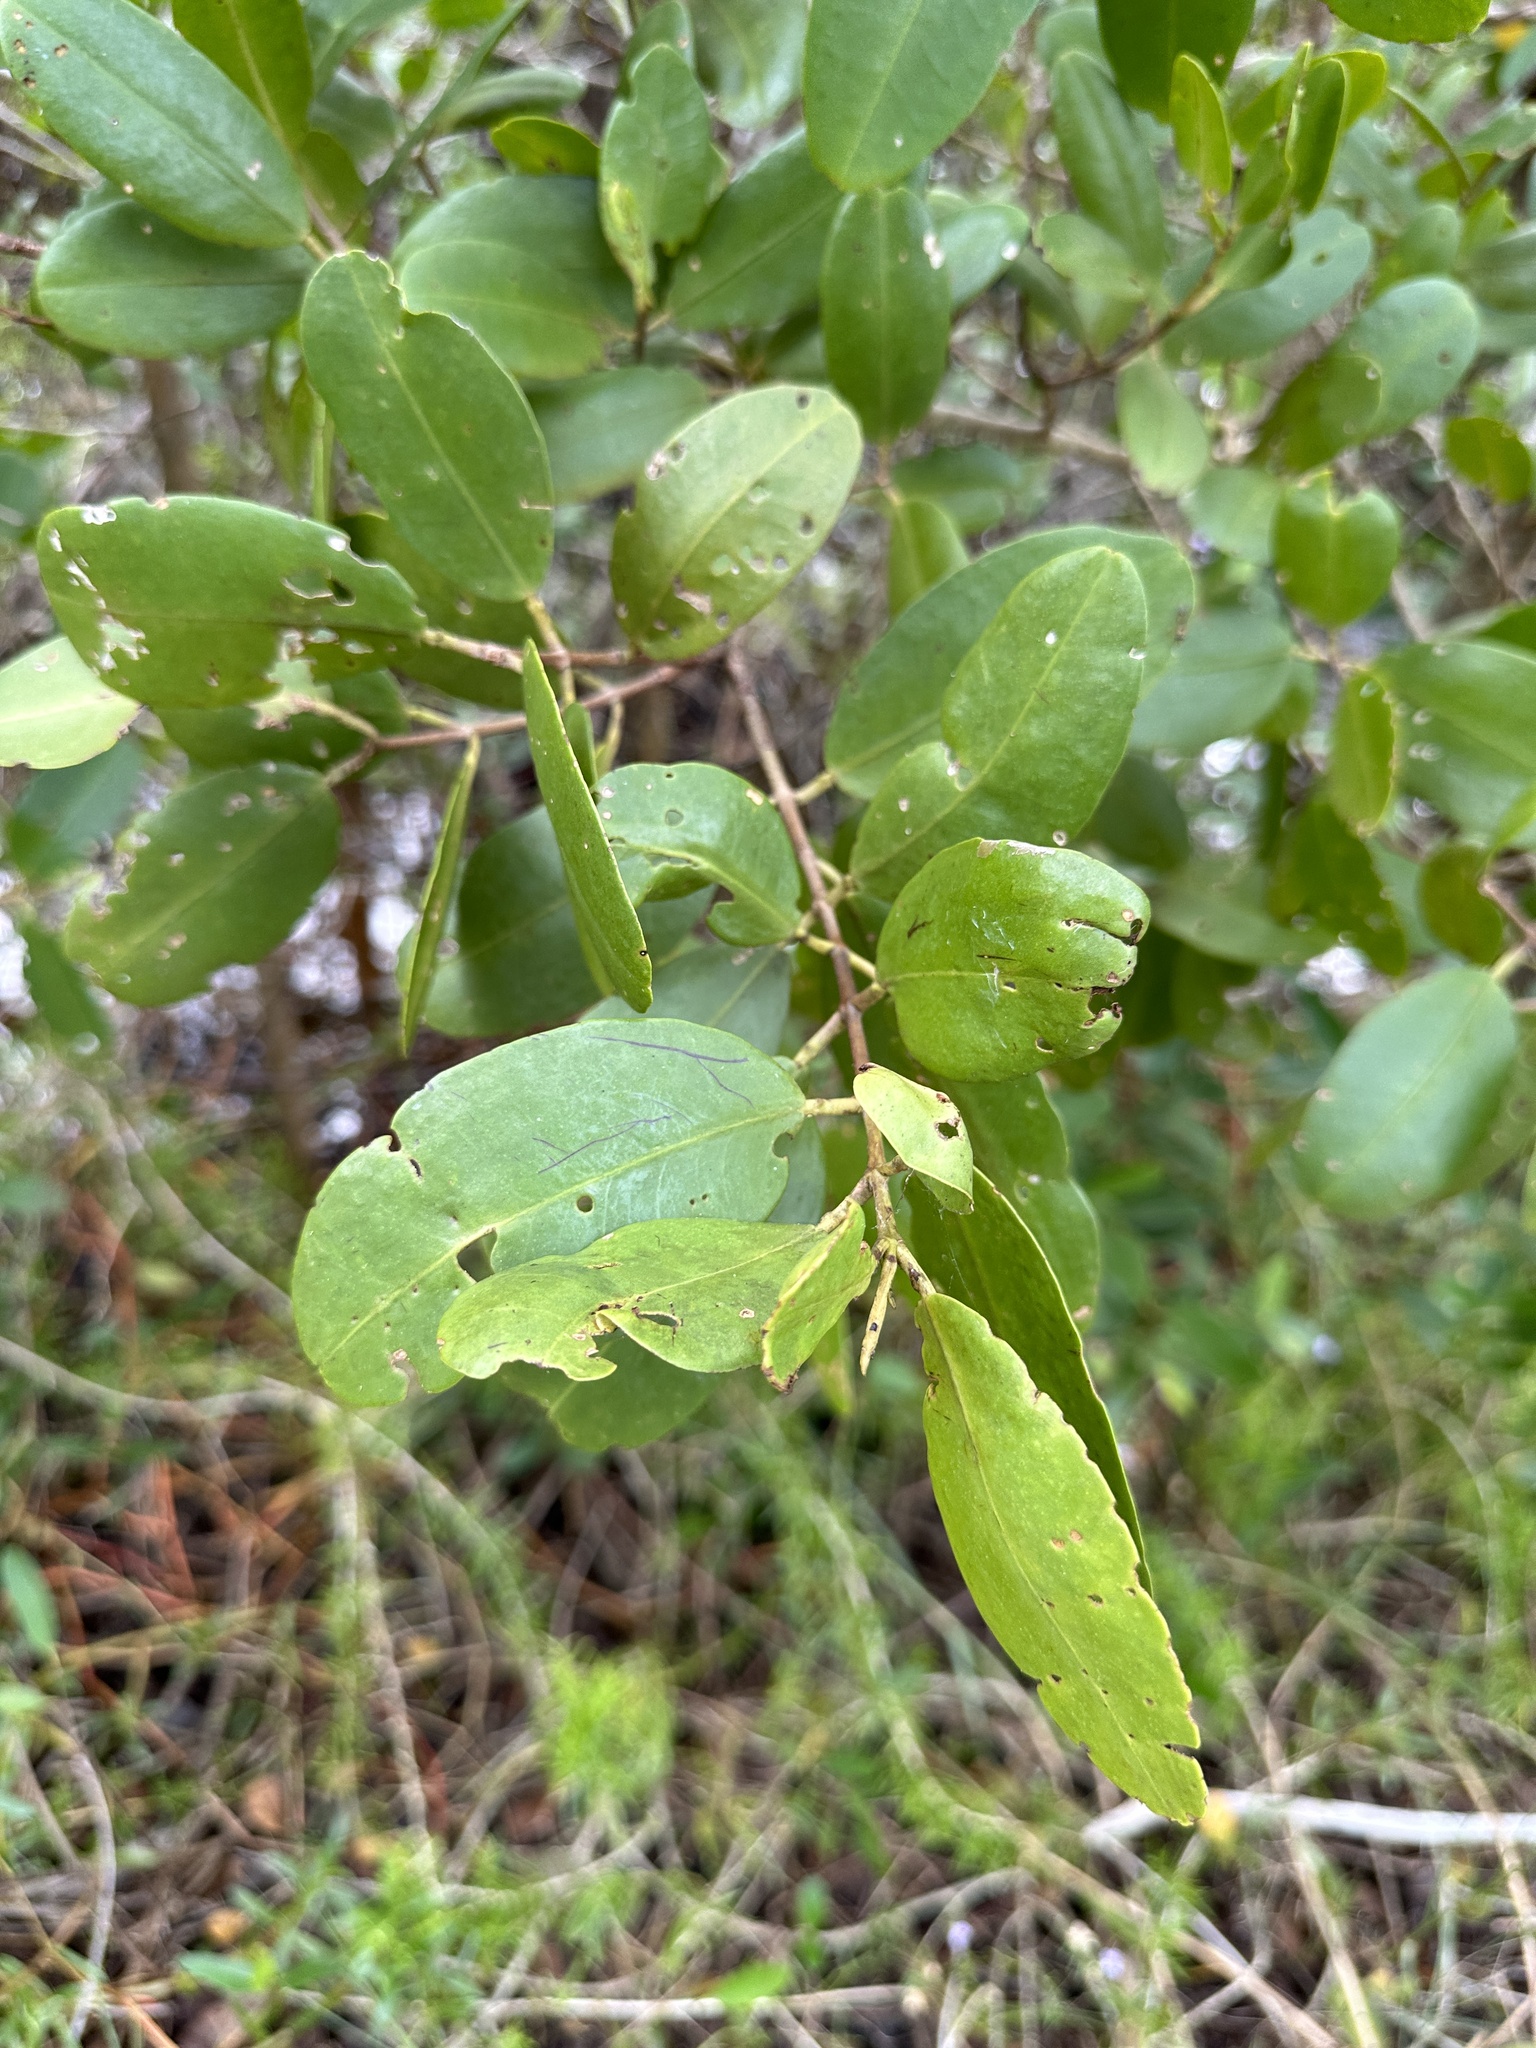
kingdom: Plantae
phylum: Tracheophyta
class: Magnoliopsida
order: Myrtales
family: Combretaceae
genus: Laguncularia
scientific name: Laguncularia racemosa
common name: White mangrove
